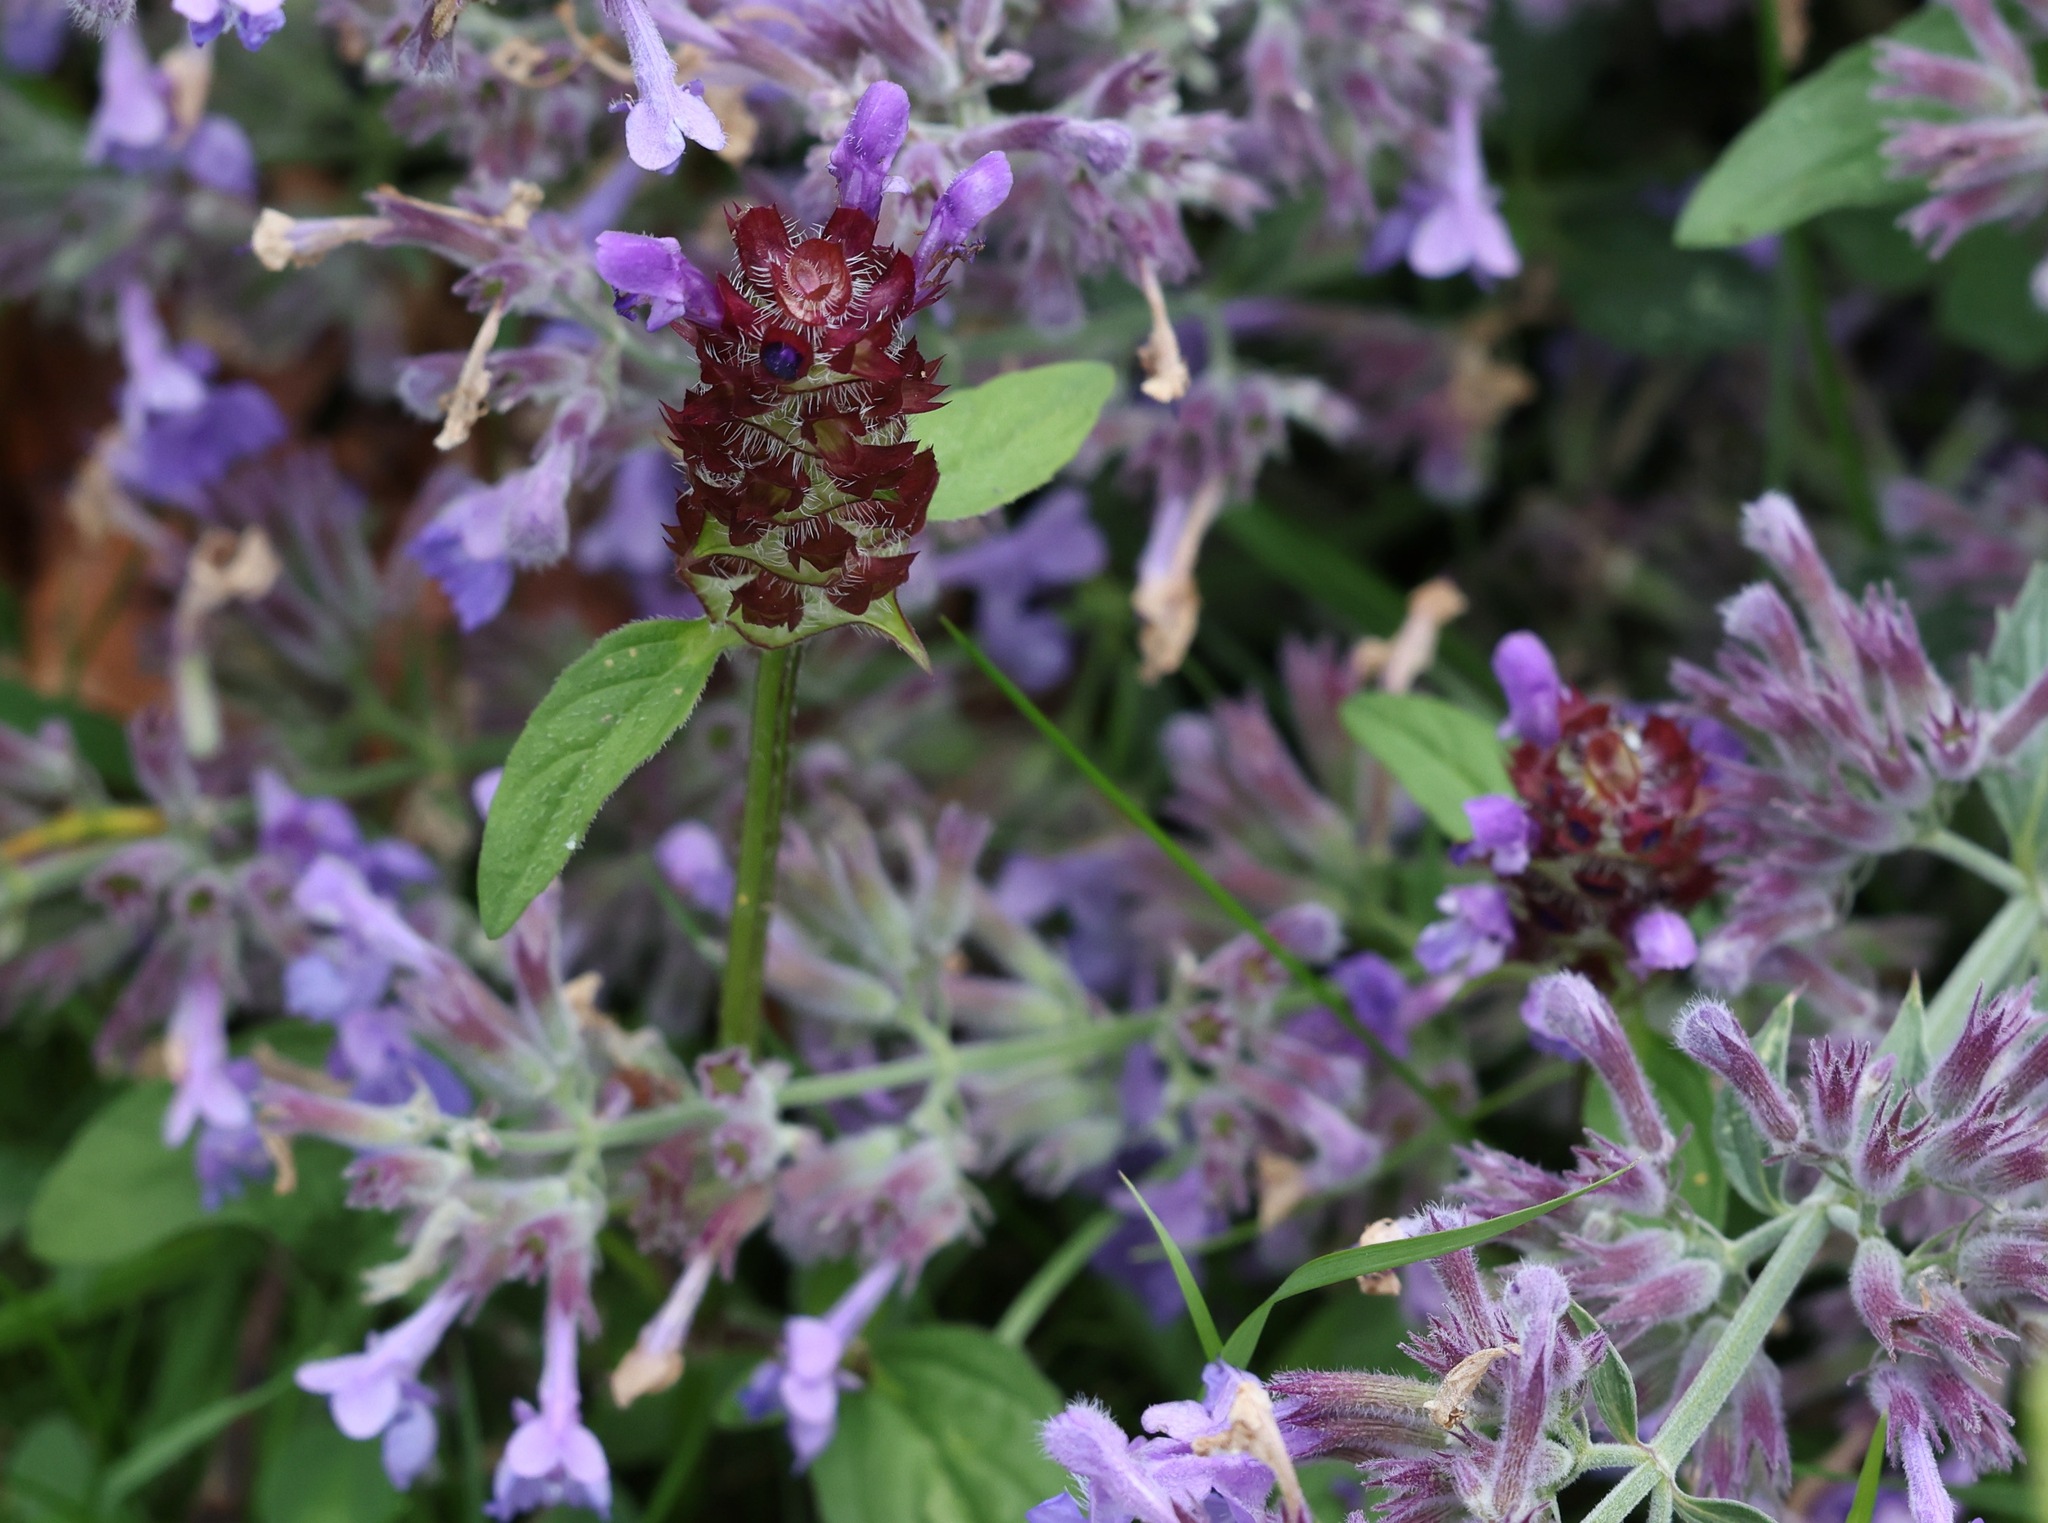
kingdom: Plantae
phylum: Tracheophyta
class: Magnoliopsida
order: Lamiales
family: Lamiaceae
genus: Prunella
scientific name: Prunella vulgaris
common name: Heal-all
